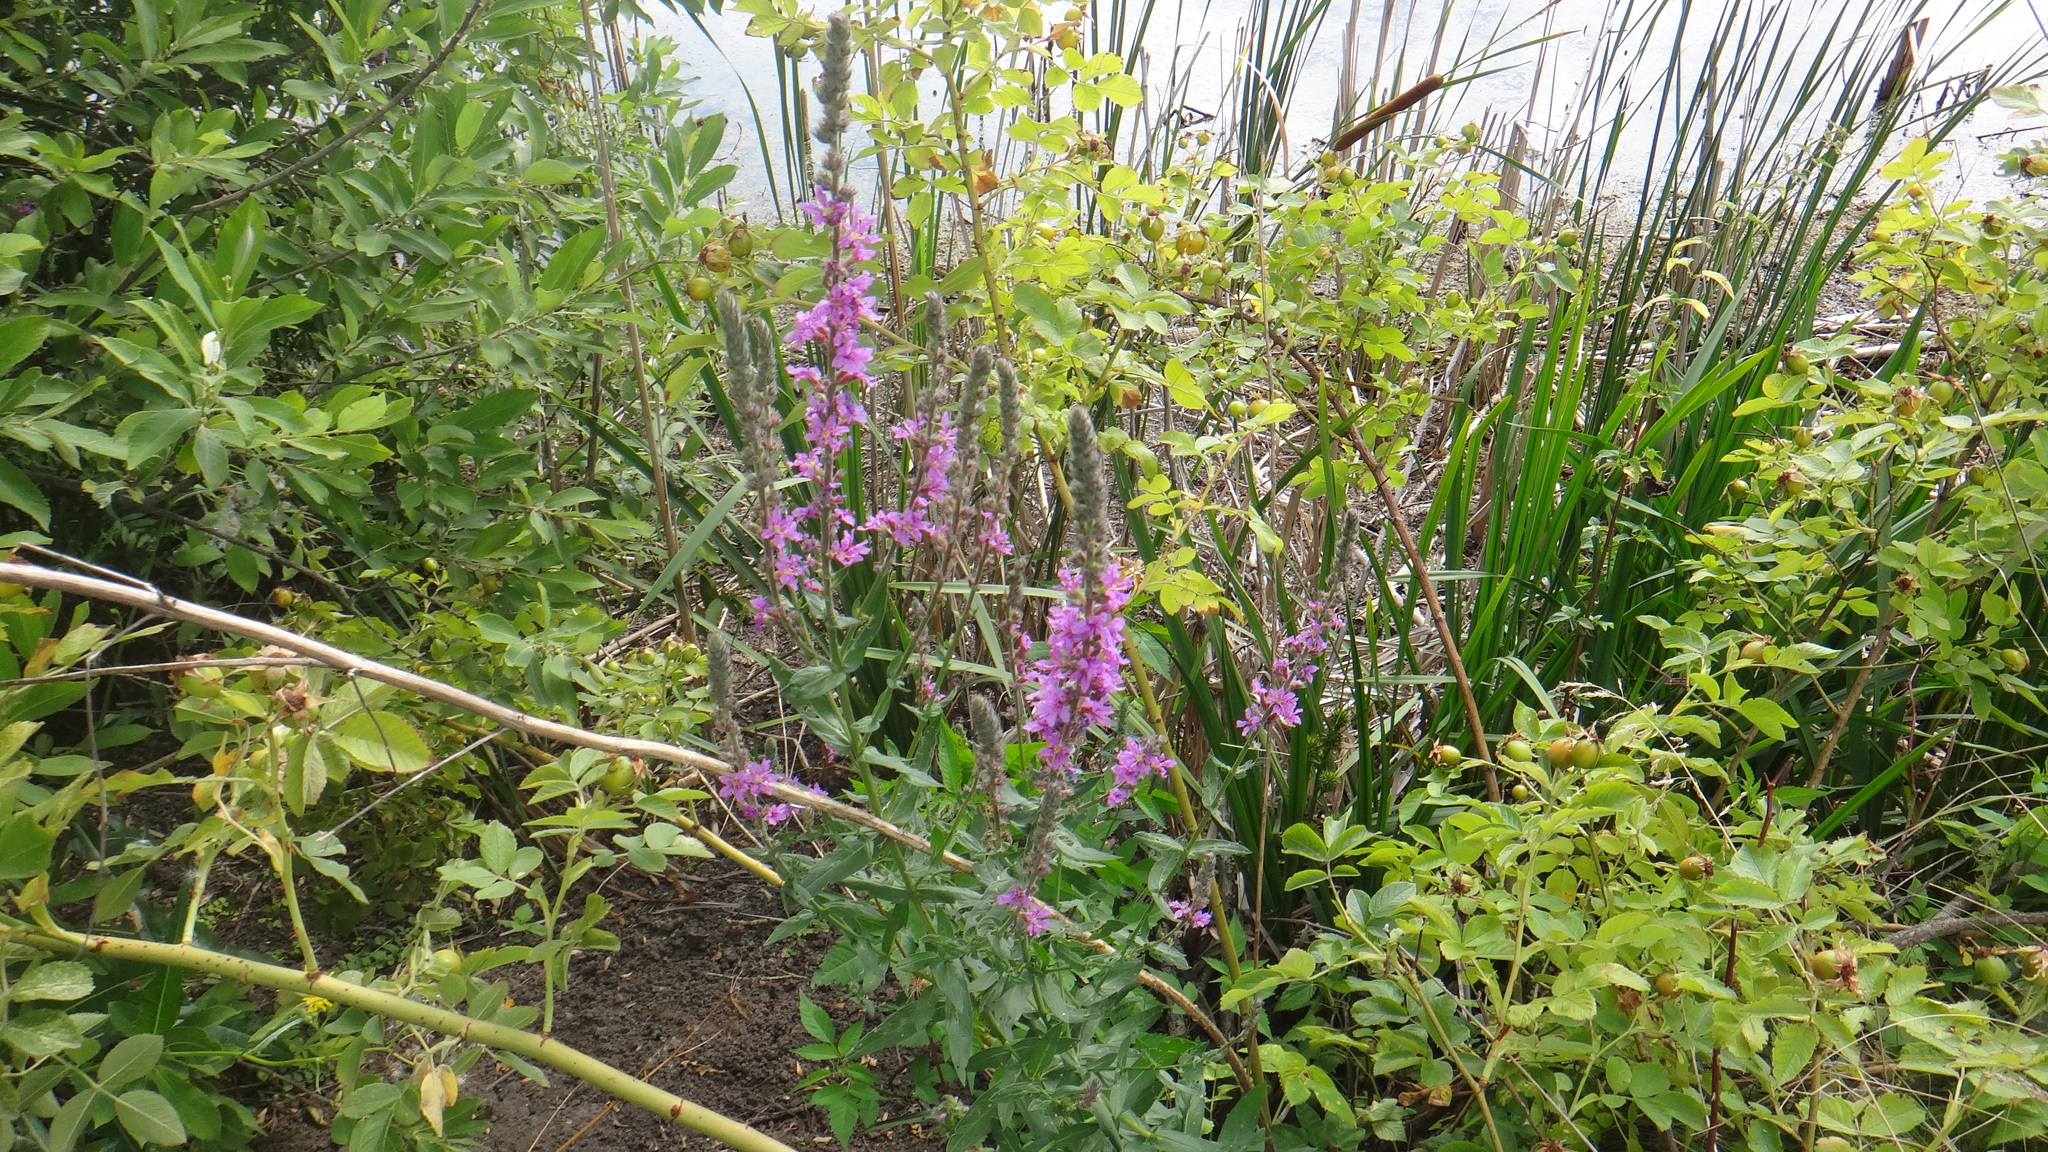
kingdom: Plantae
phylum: Tracheophyta
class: Magnoliopsida
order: Myrtales
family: Lythraceae
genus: Lythrum
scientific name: Lythrum salicaria
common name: Purple loosestrife
